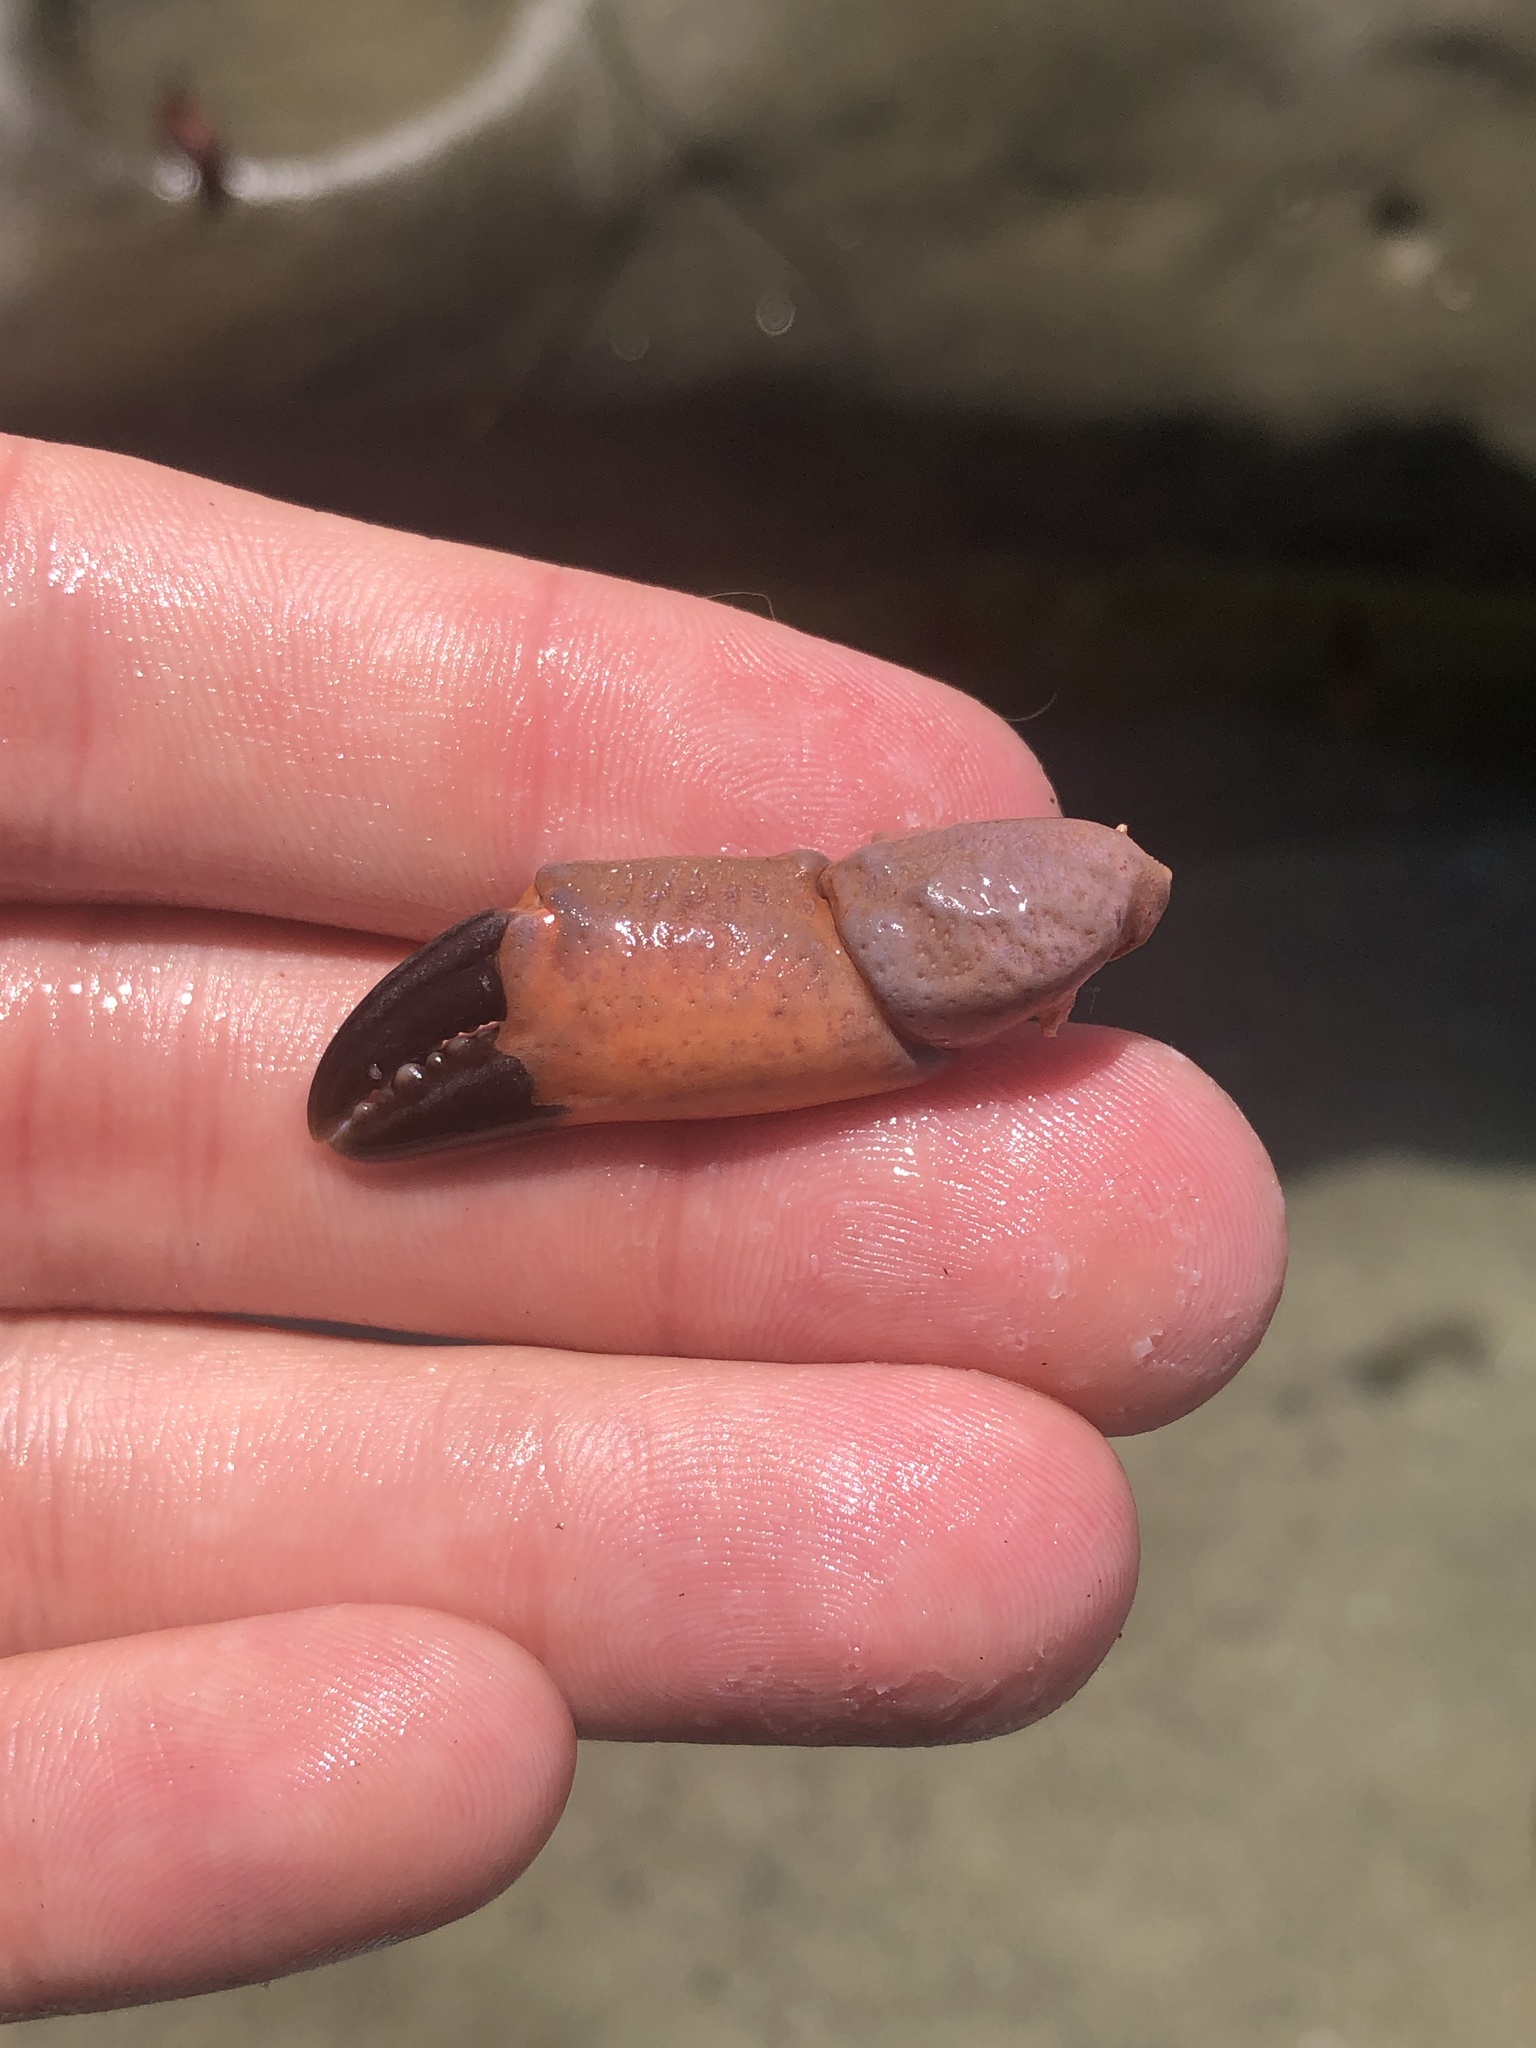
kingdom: Animalia
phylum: Arthropoda
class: Malacostraca
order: Decapoda
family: Xanthidae
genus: Cycloxanthops
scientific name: Cycloxanthops novemdentatus
